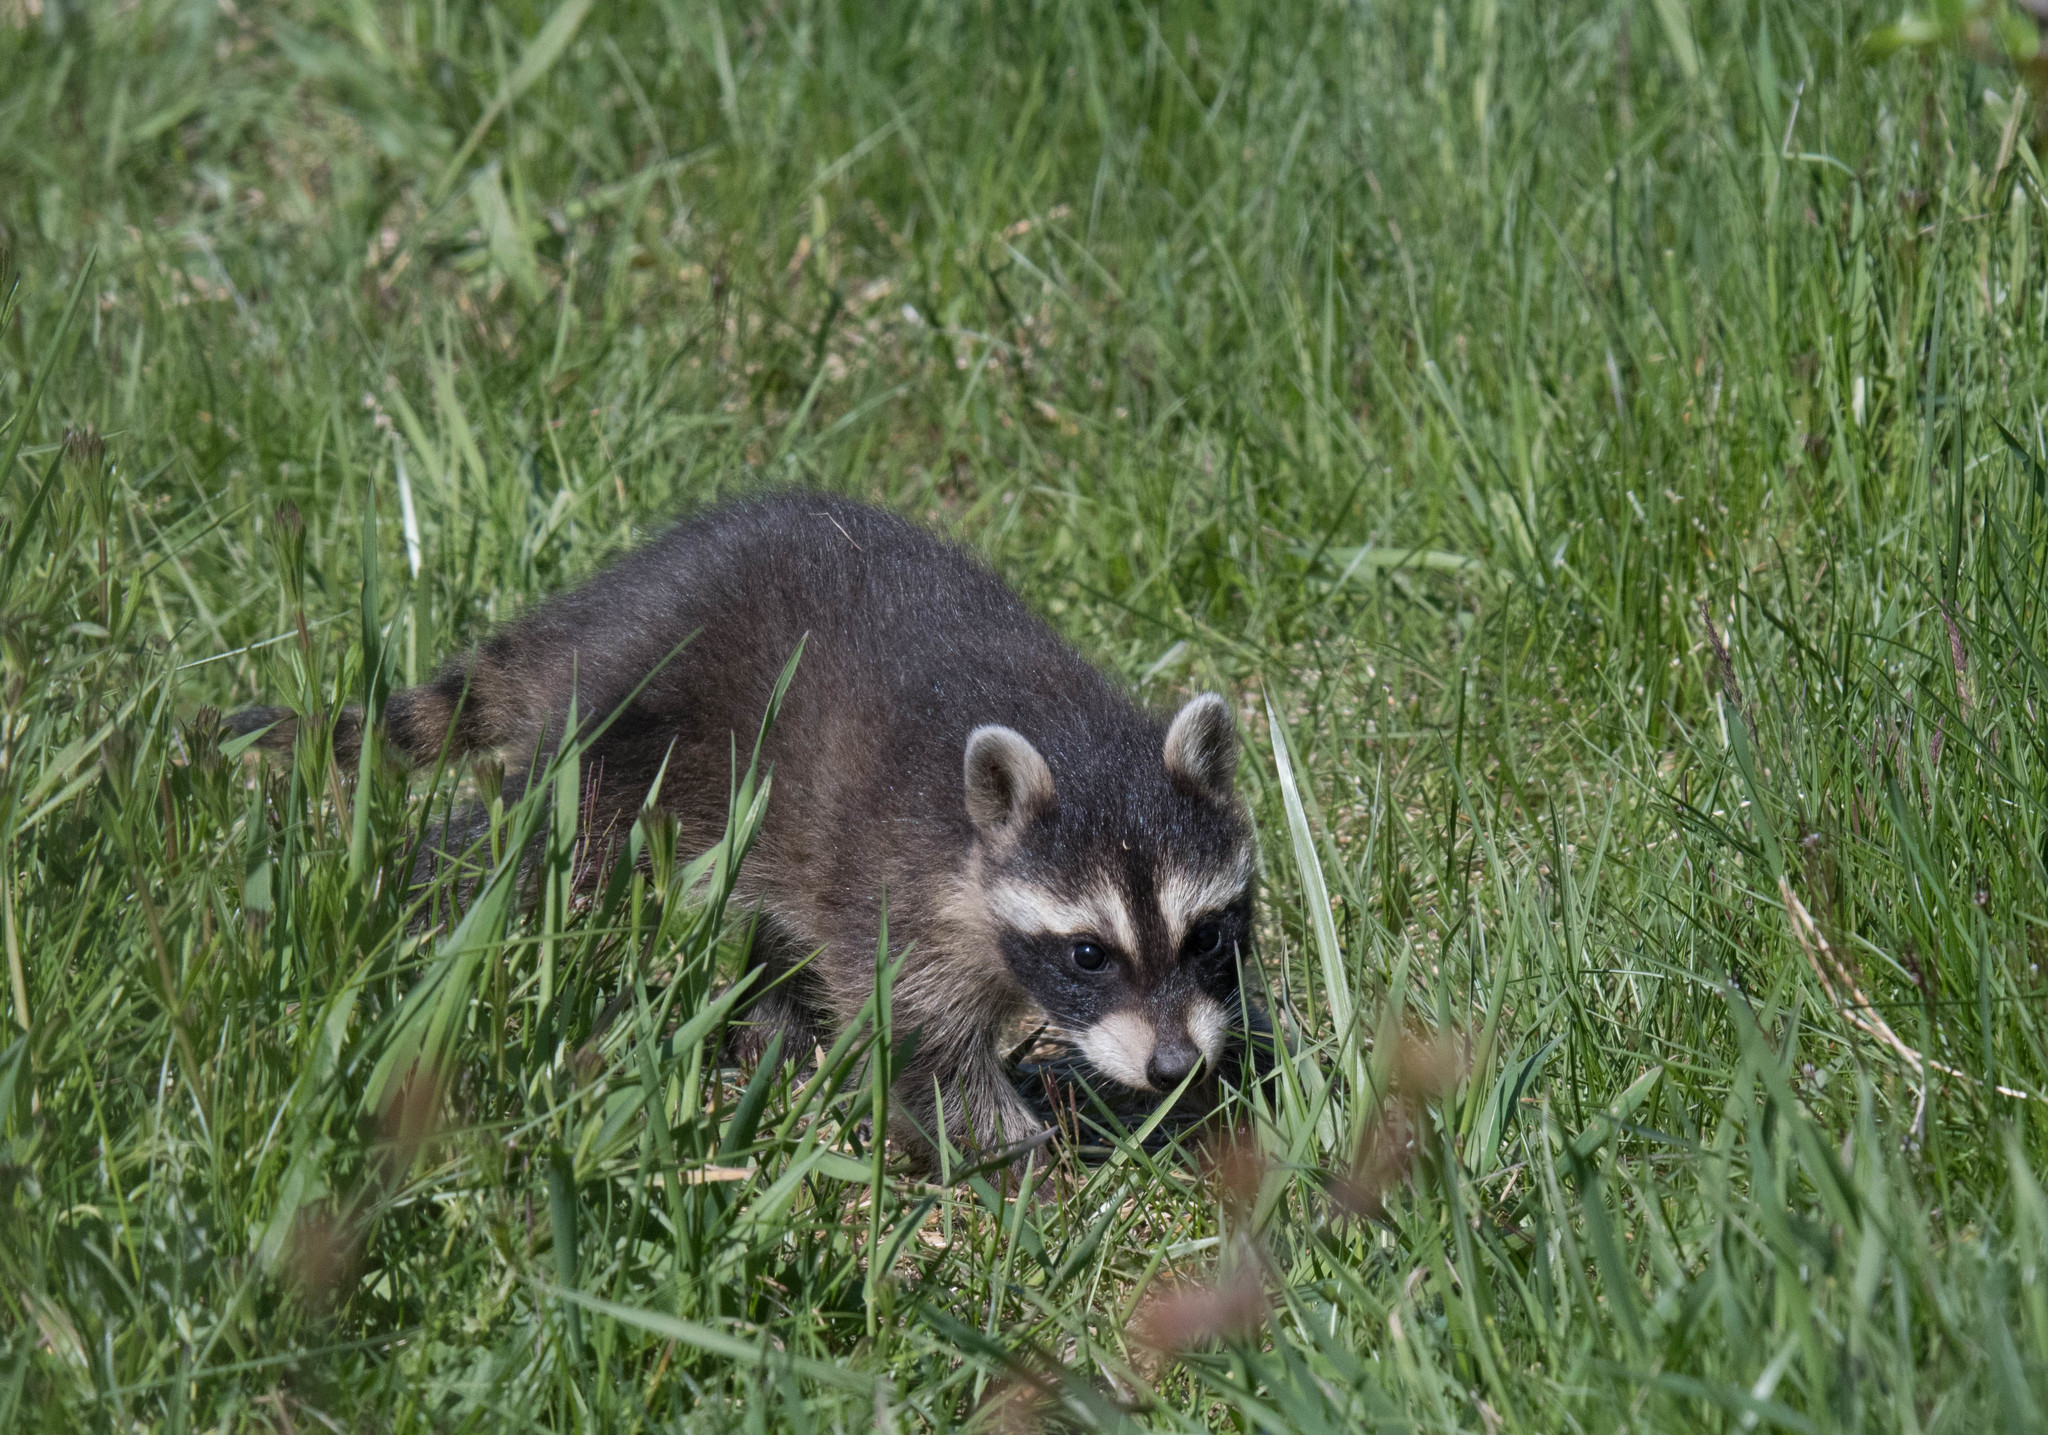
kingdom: Animalia
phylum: Chordata
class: Mammalia
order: Carnivora
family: Procyonidae
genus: Procyon
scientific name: Procyon lotor
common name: Raccoon
